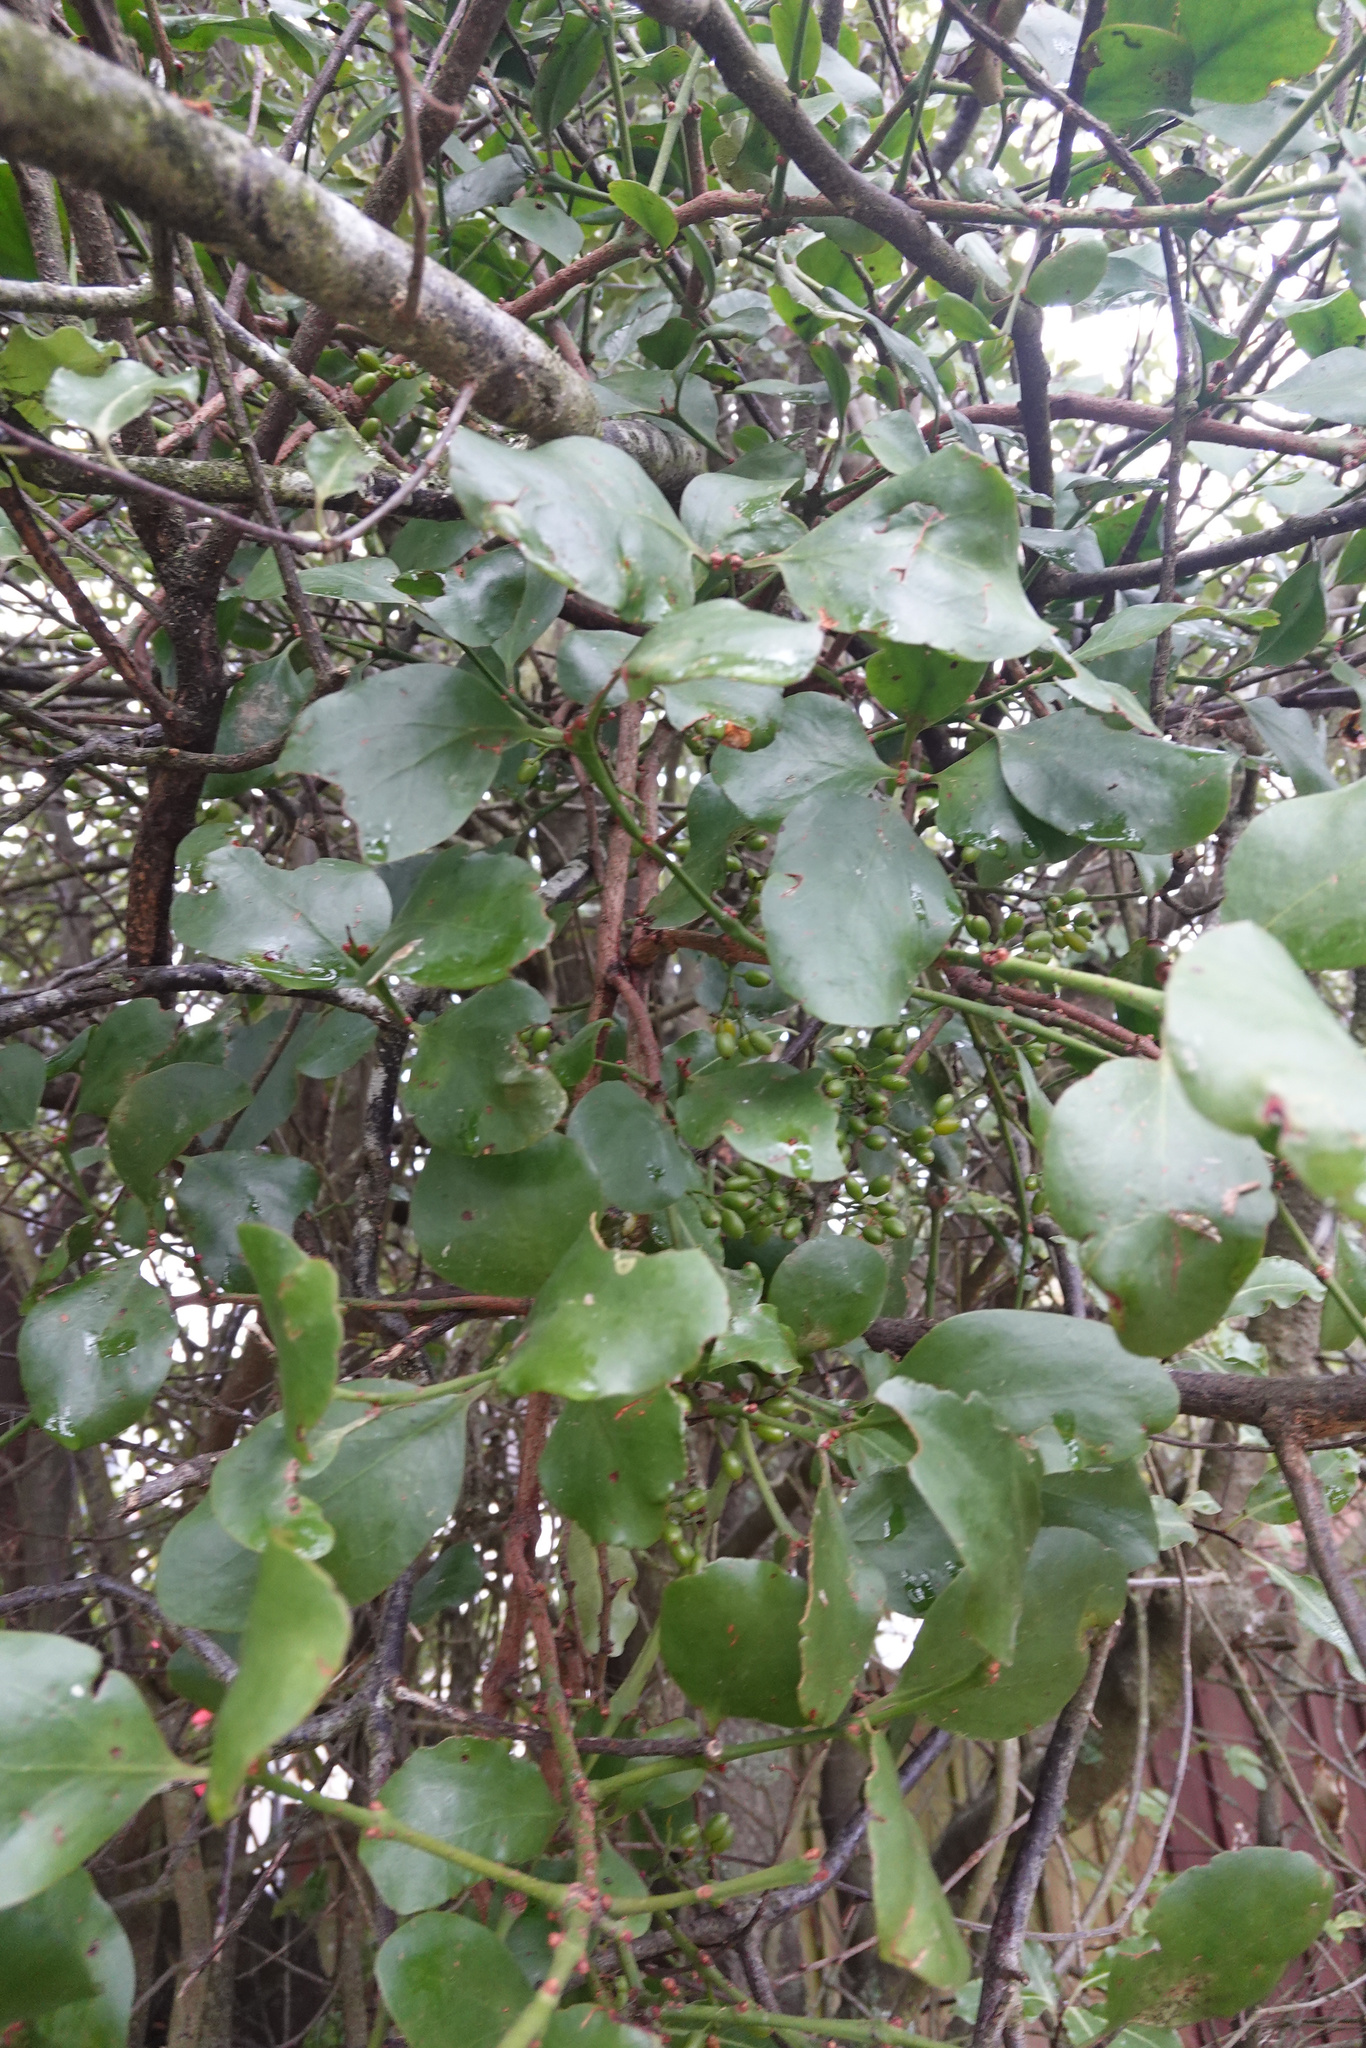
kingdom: Plantae
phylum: Tracheophyta
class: Magnoliopsida
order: Santalales
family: Loranthaceae
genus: Ileostylus
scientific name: Ileostylus micranthus
